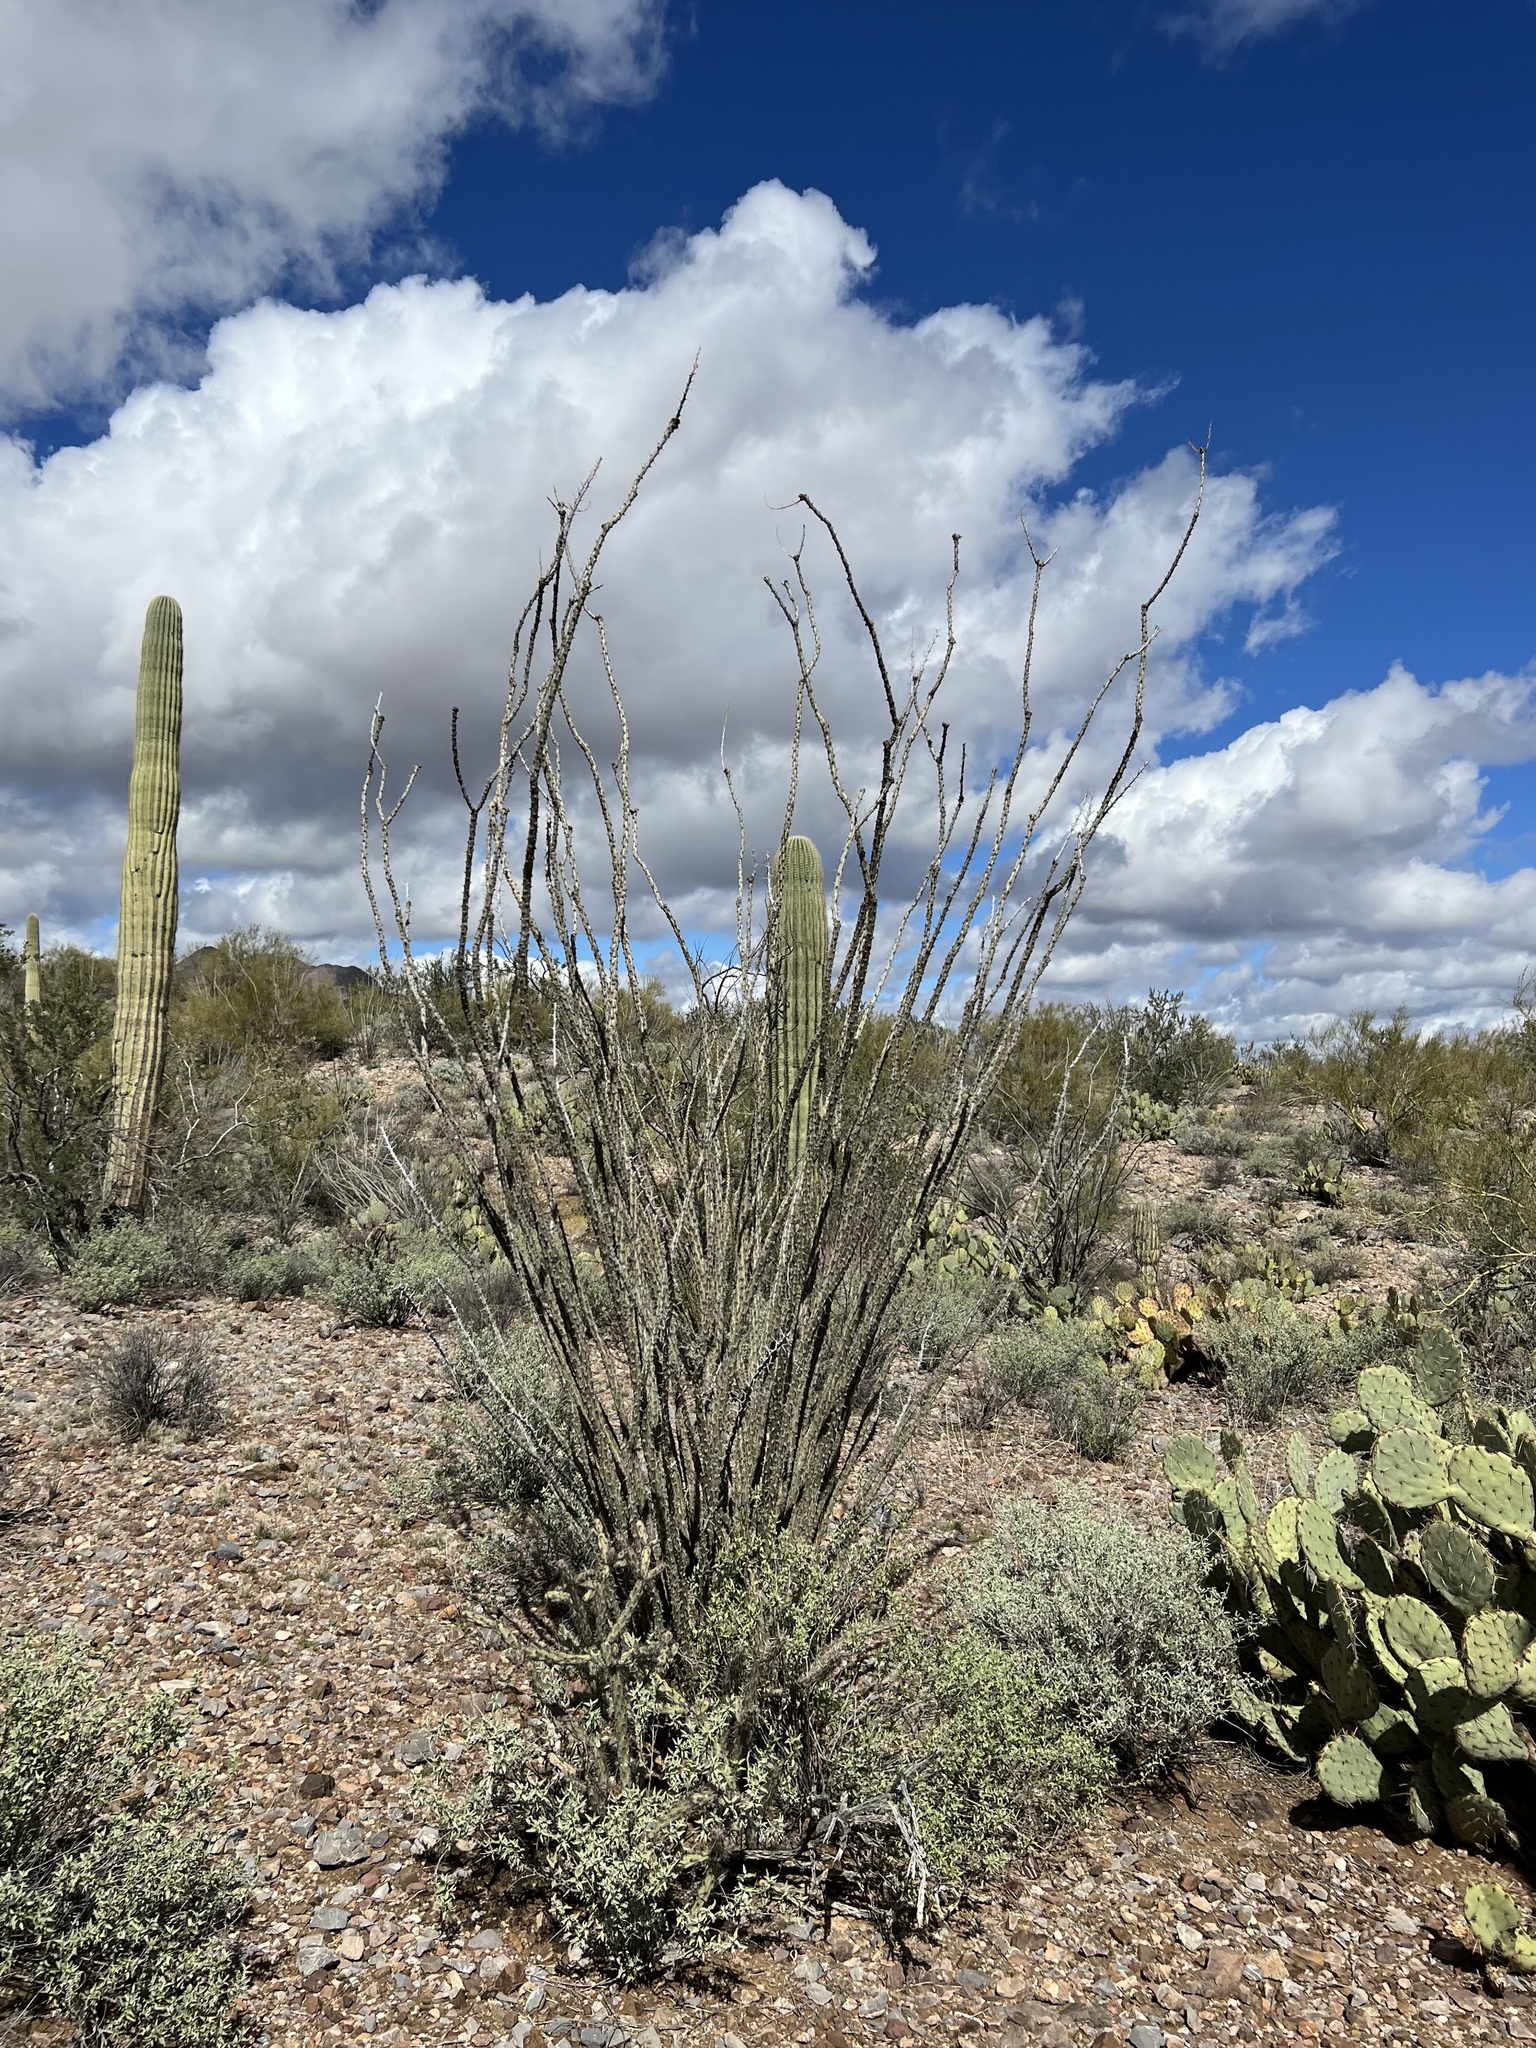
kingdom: Plantae
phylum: Tracheophyta
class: Magnoliopsida
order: Ericales
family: Fouquieriaceae
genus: Fouquieria
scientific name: Fouquieria splendens
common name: Vine-cactus
